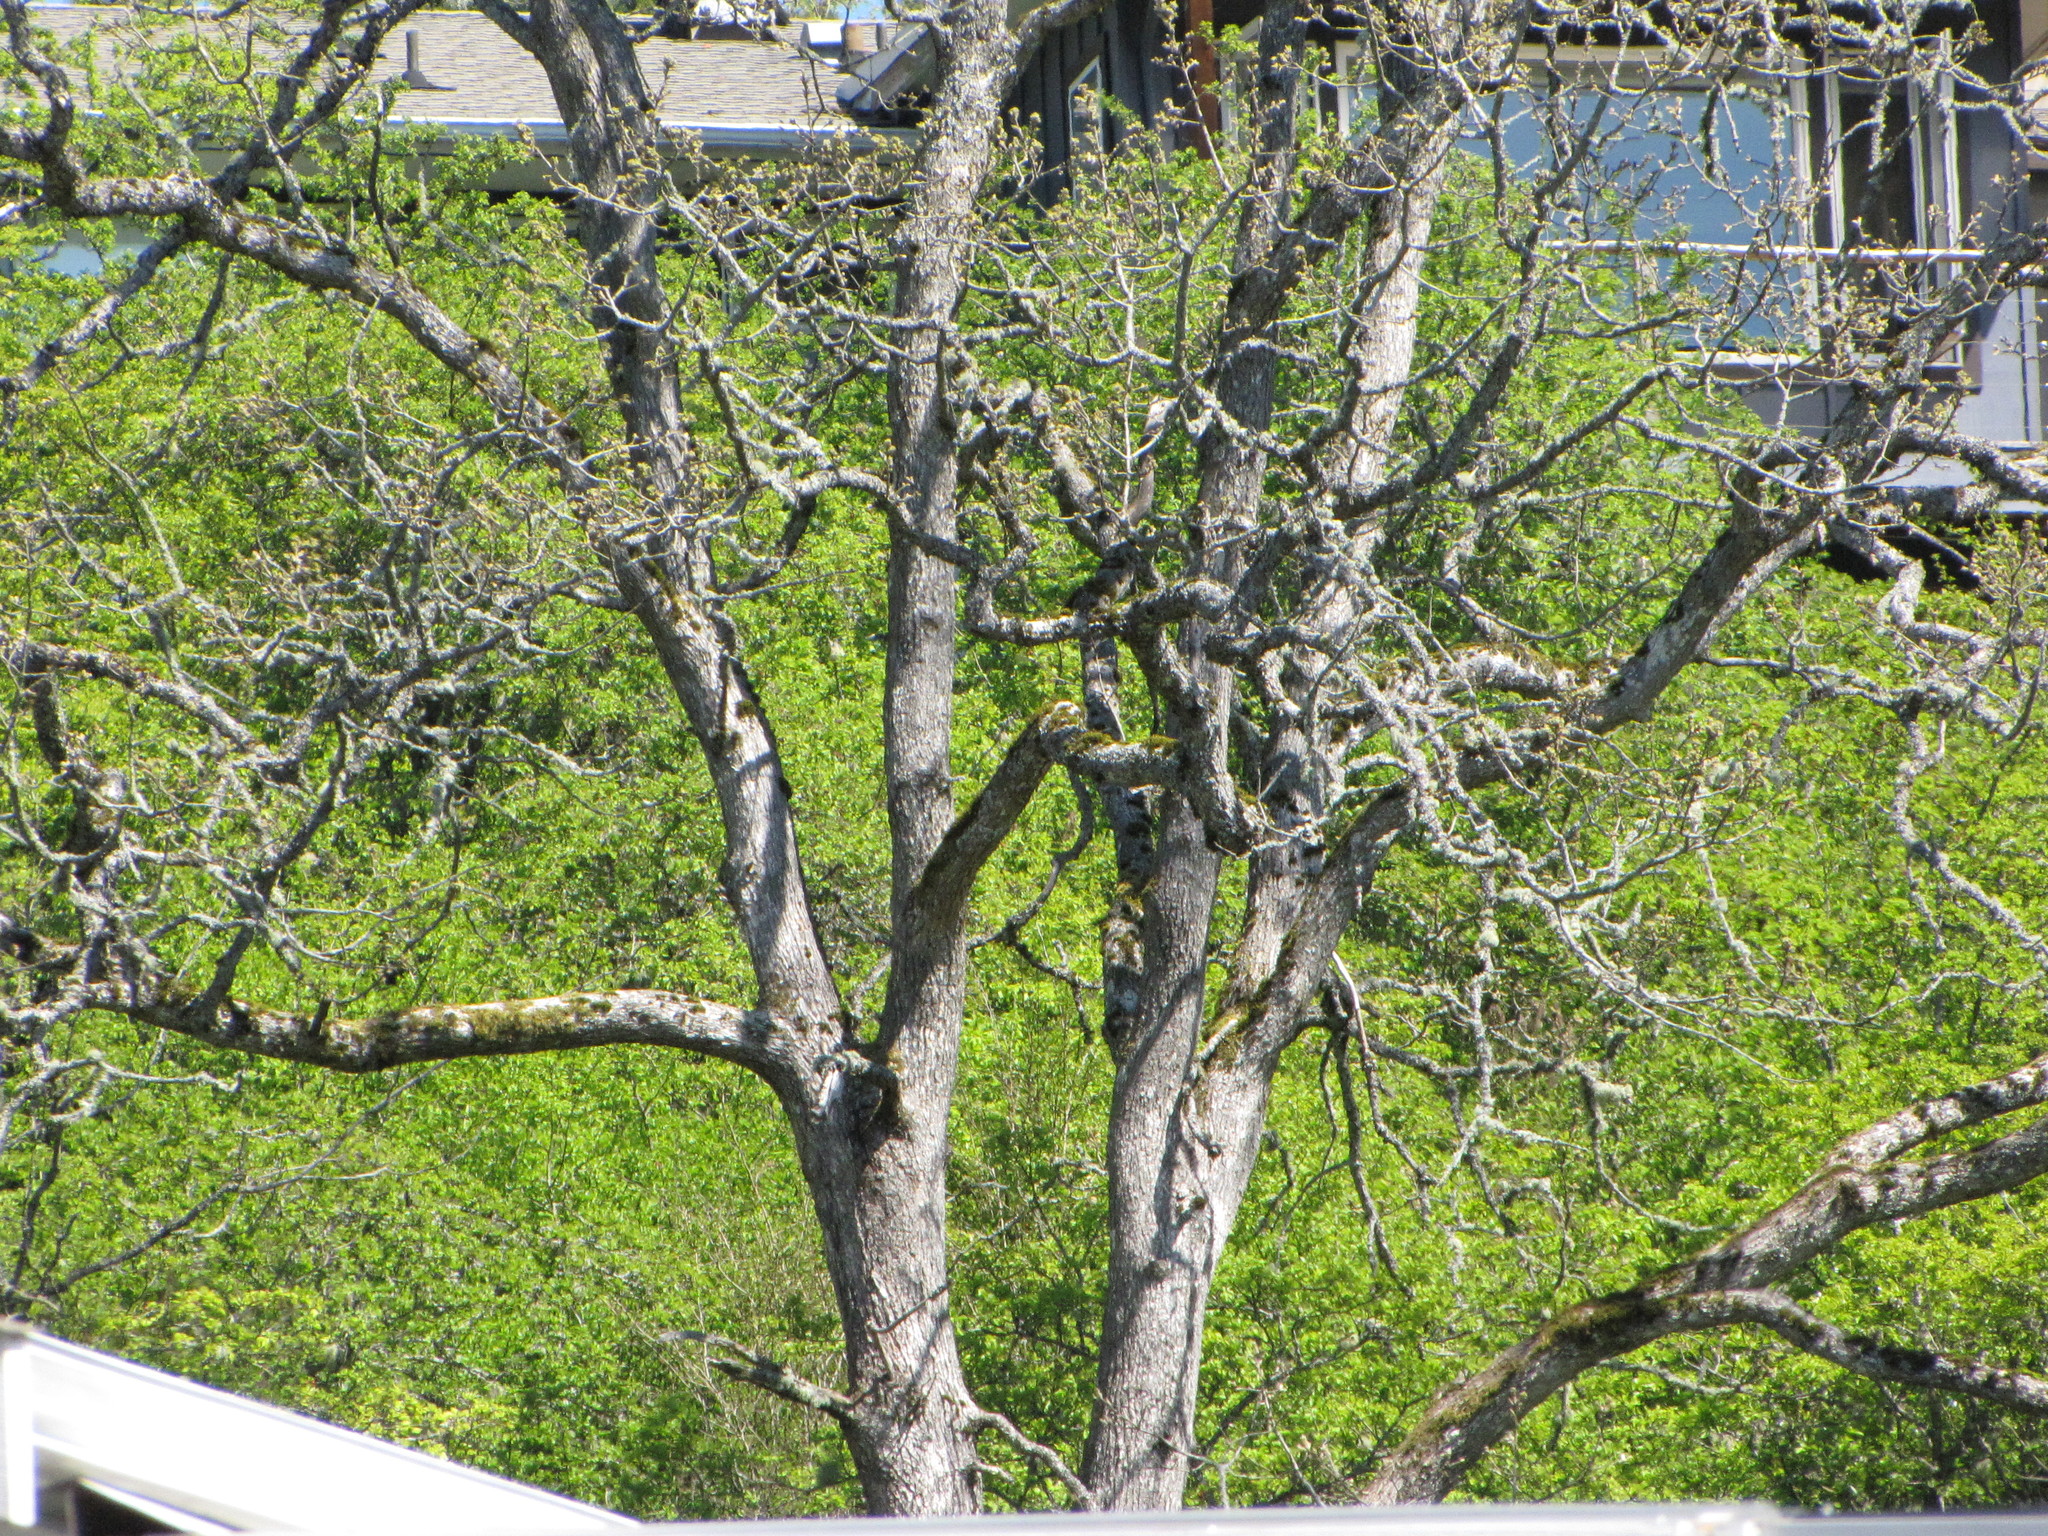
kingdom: Plantae
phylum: Tracheophyta
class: Magnoliopsida
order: Fagales
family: Fagaceae
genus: Quercus
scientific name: Quercus garryana
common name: Garry oak
